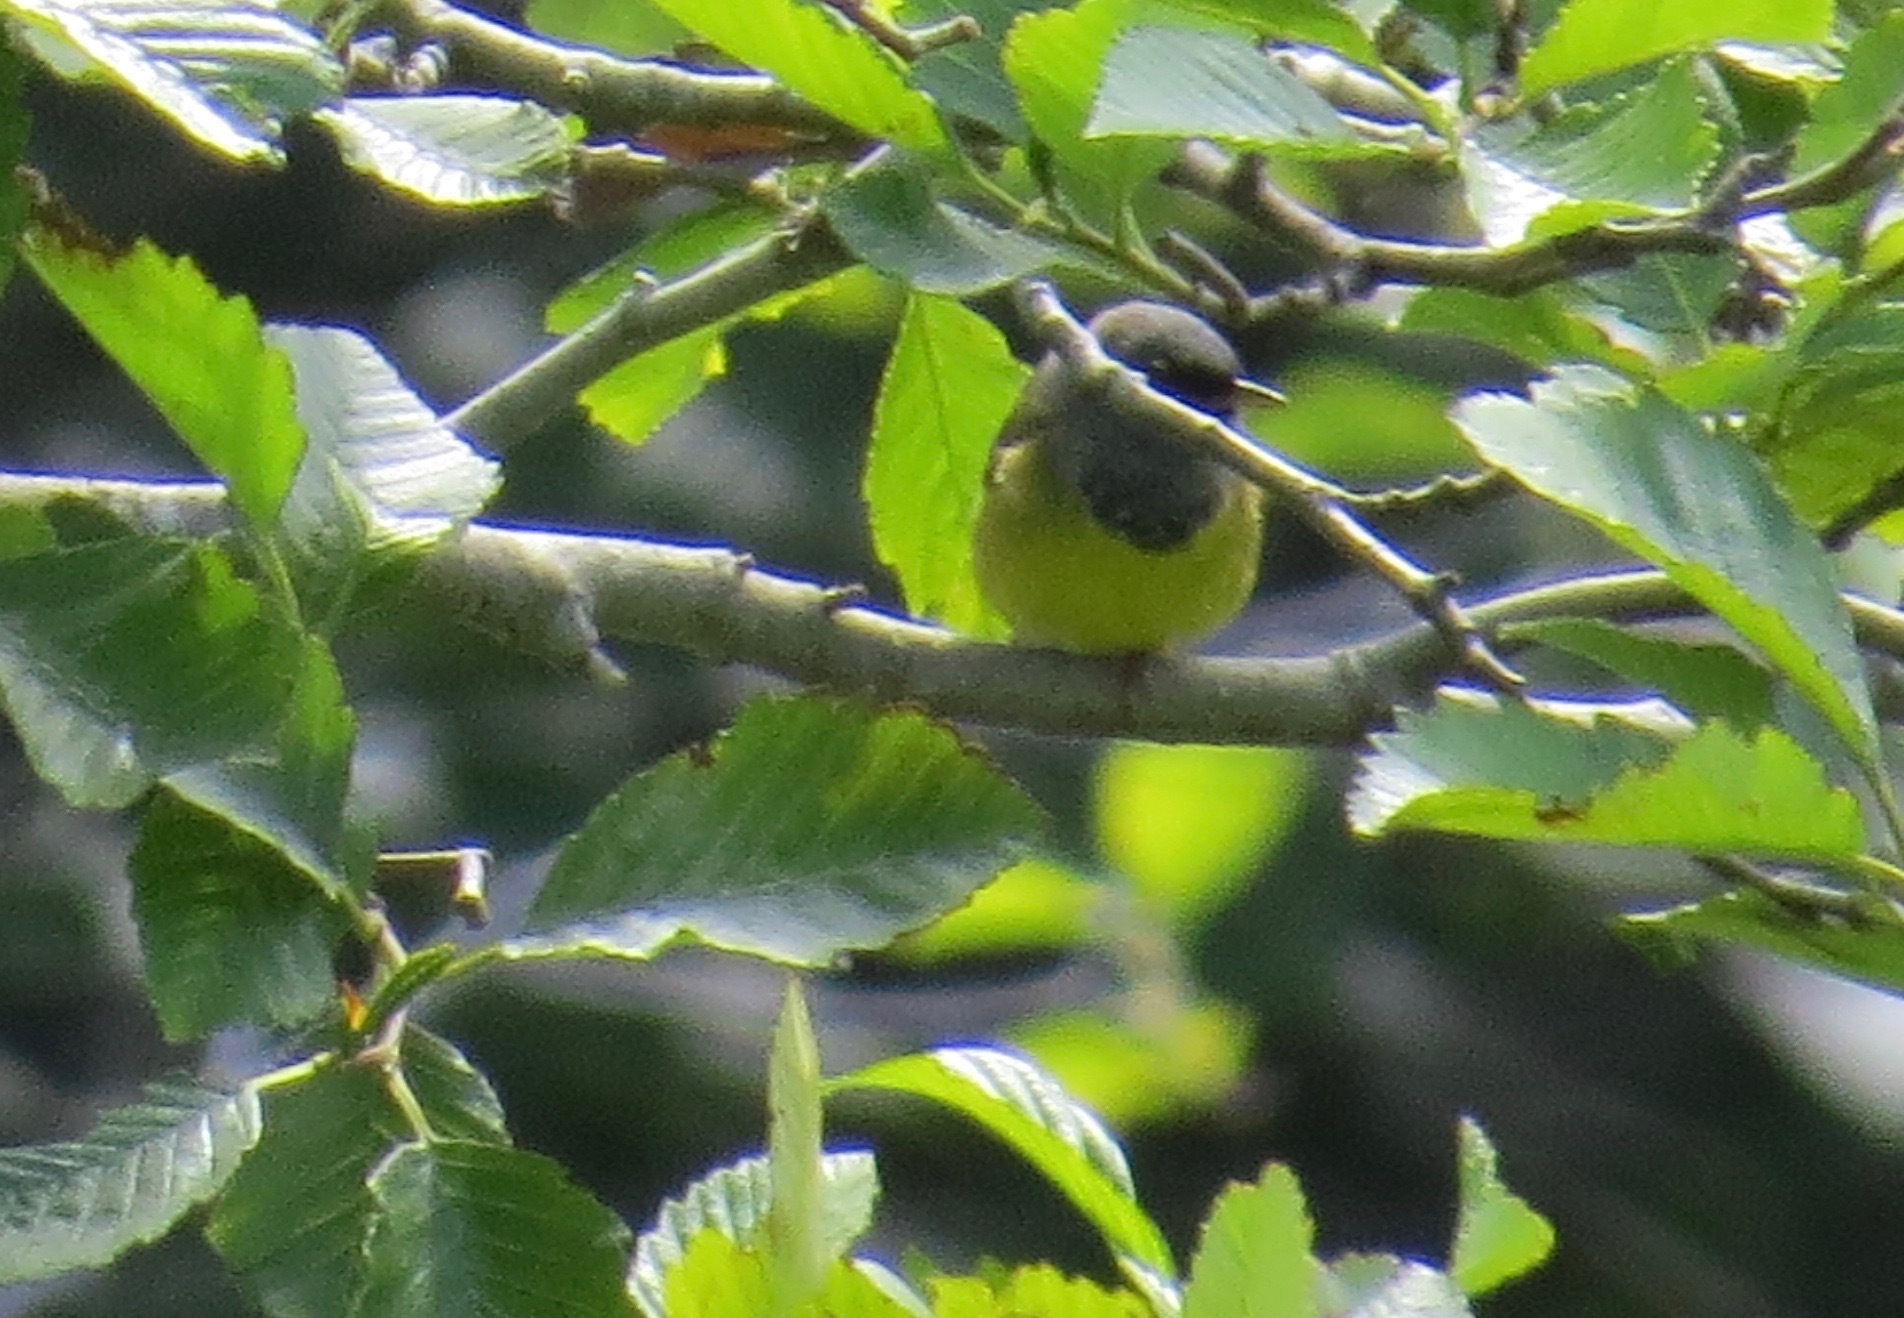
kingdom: Animalia
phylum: Chordata
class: Aves
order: Passeriformes
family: Parulidae
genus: Geothlypis
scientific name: Geothlypis tolmiei
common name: Macgillivray's warbler
